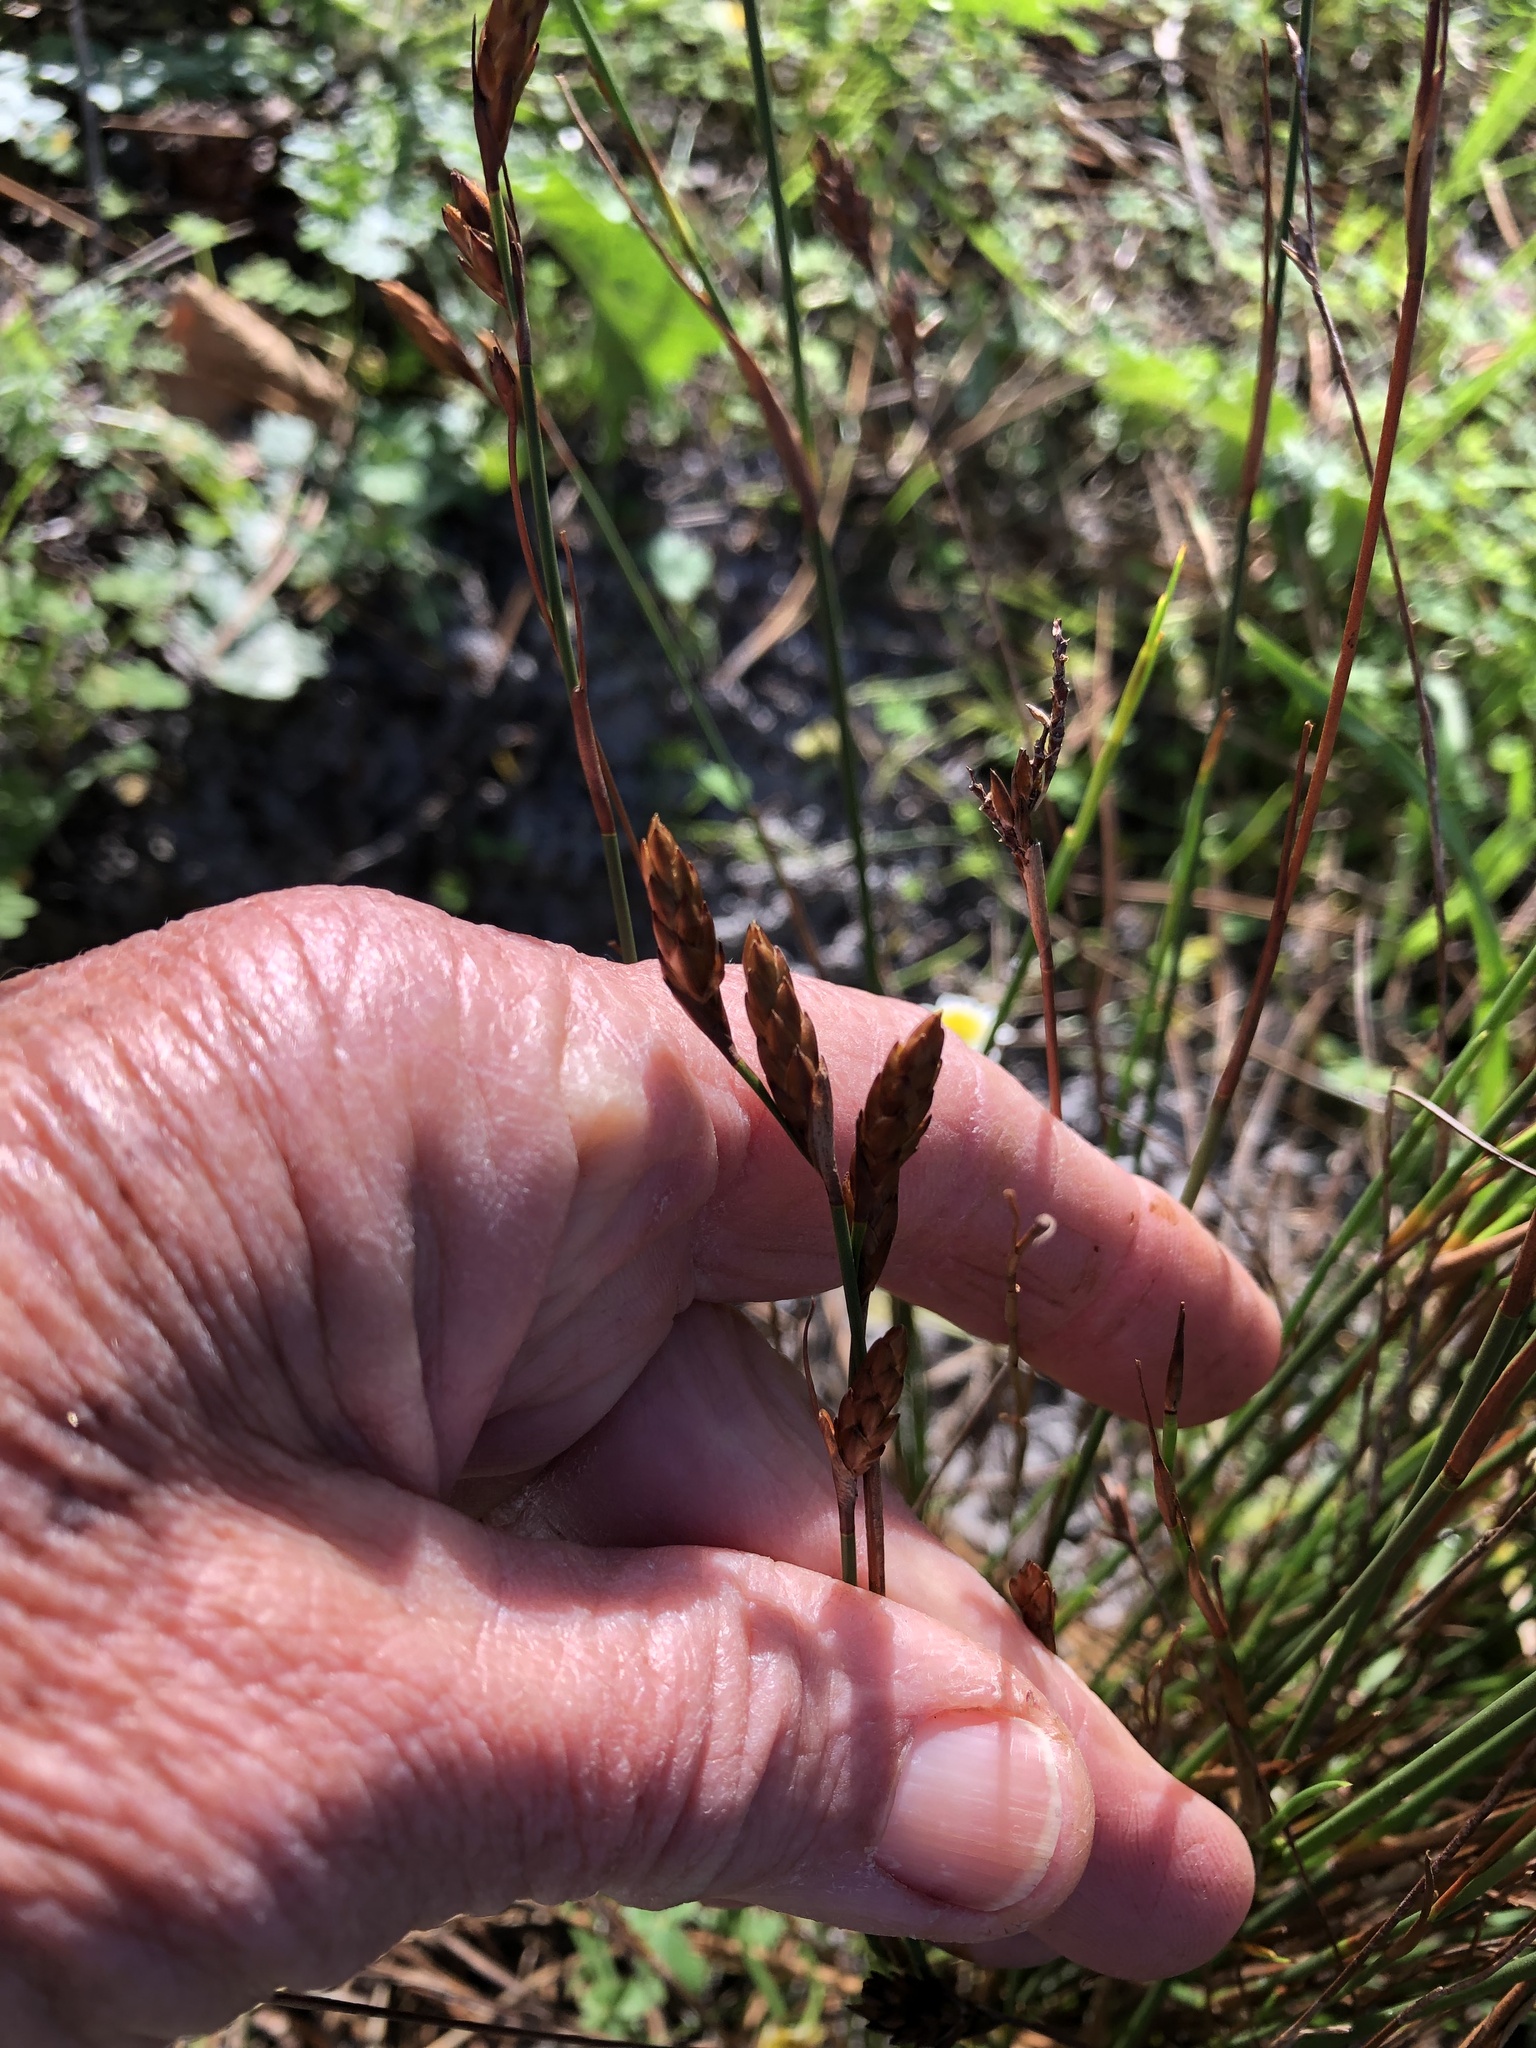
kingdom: Plantae
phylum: Tracheophyta
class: Liliopsida
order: Poales
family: Restionaceae
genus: Restio
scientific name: Restio quinquefarius
